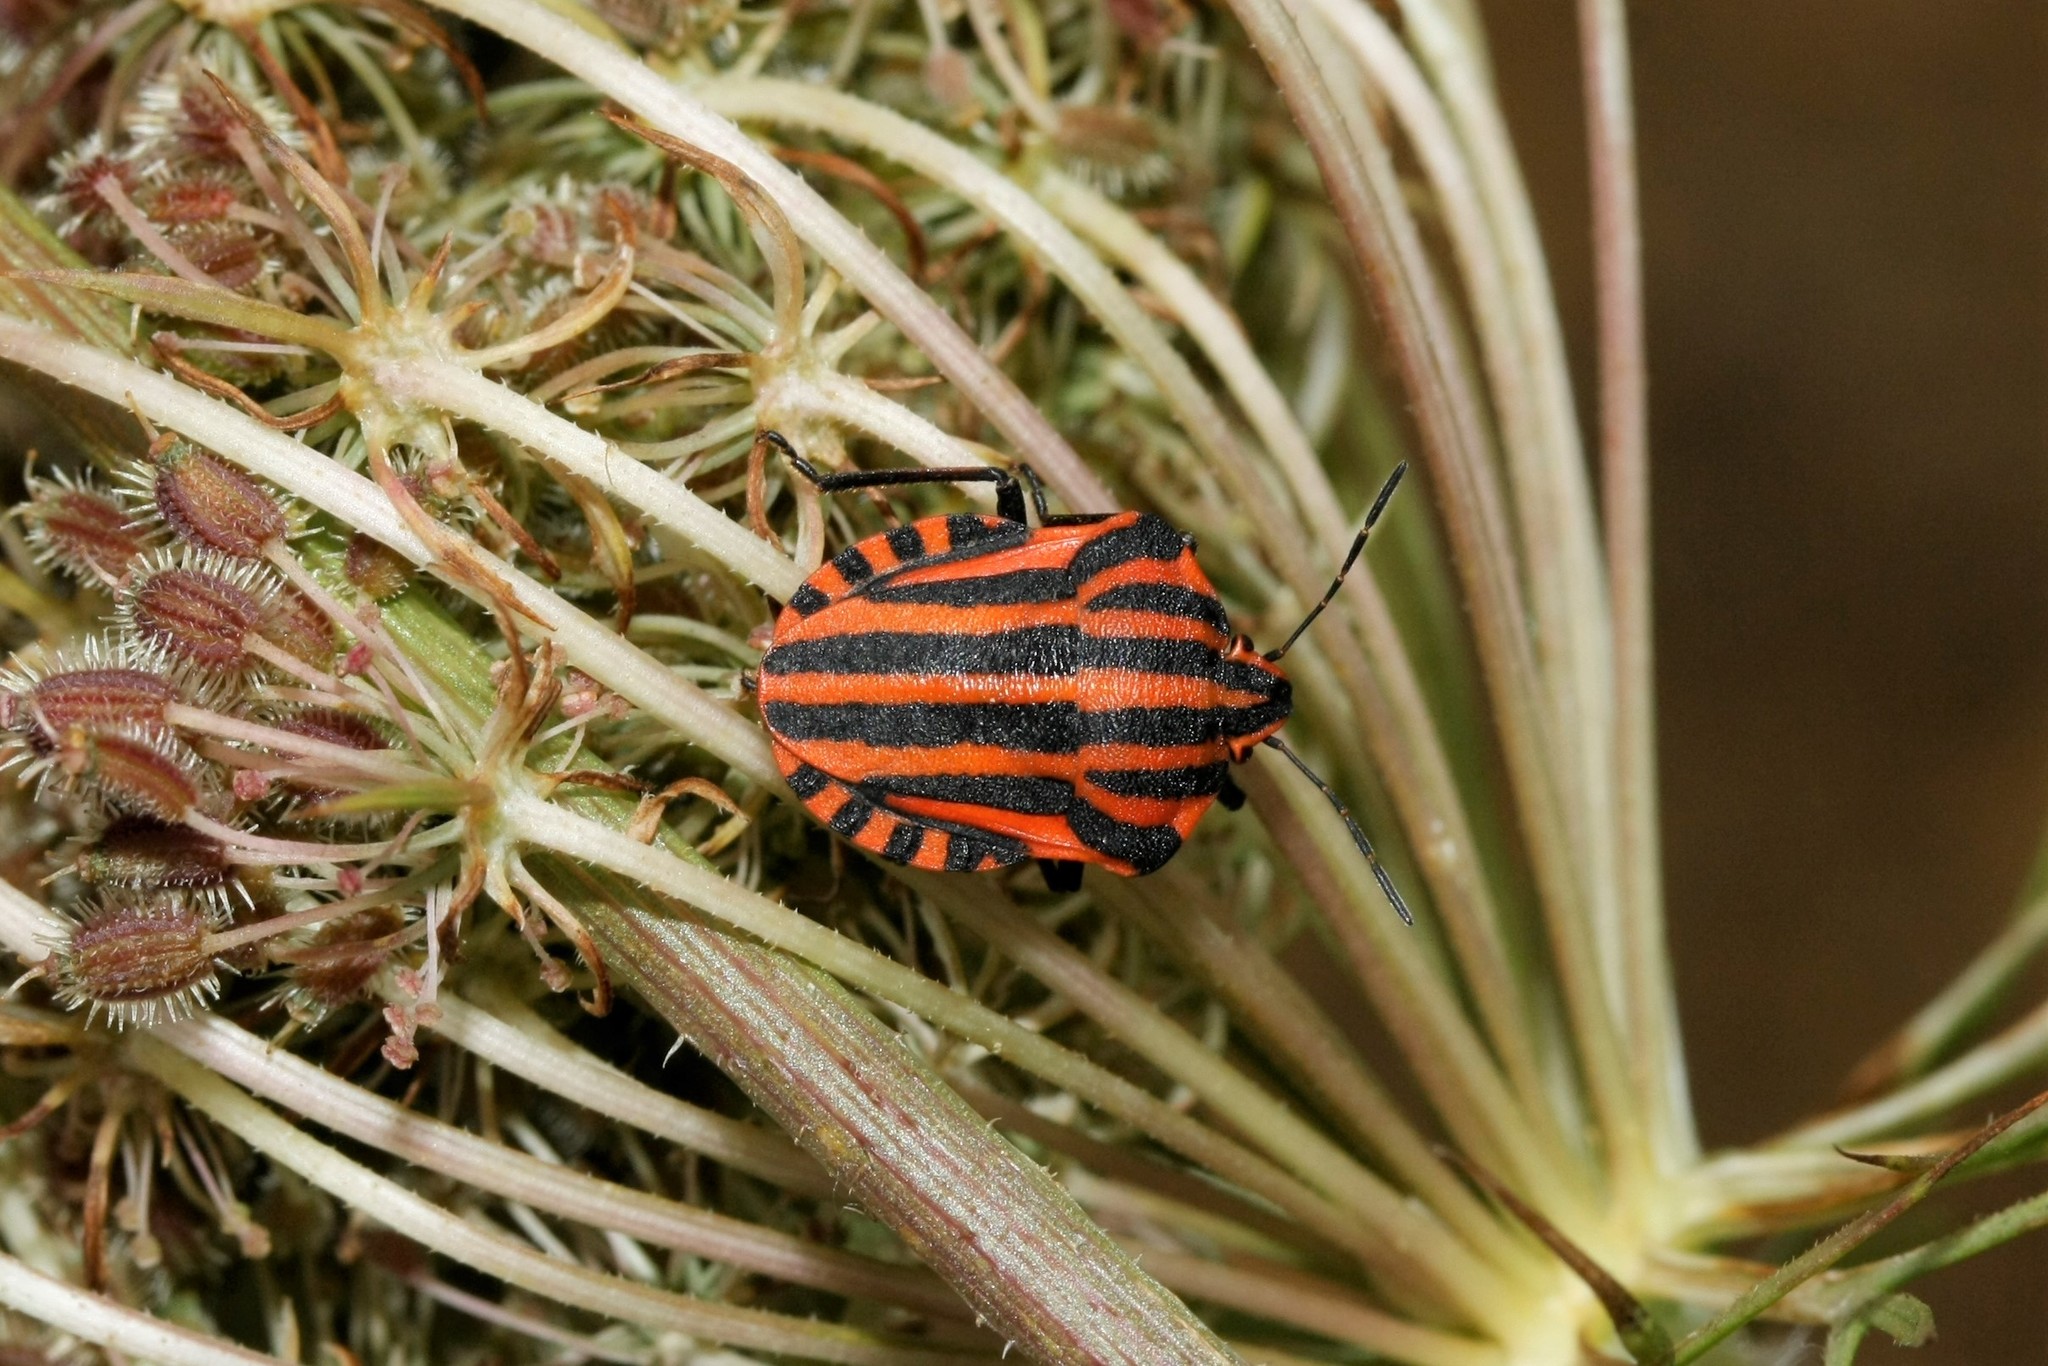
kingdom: Animalia
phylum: Arthropoda
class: Insecta
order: Hemiptera
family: Pentatomidae
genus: Graphosoma
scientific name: Graphosoma italicum
